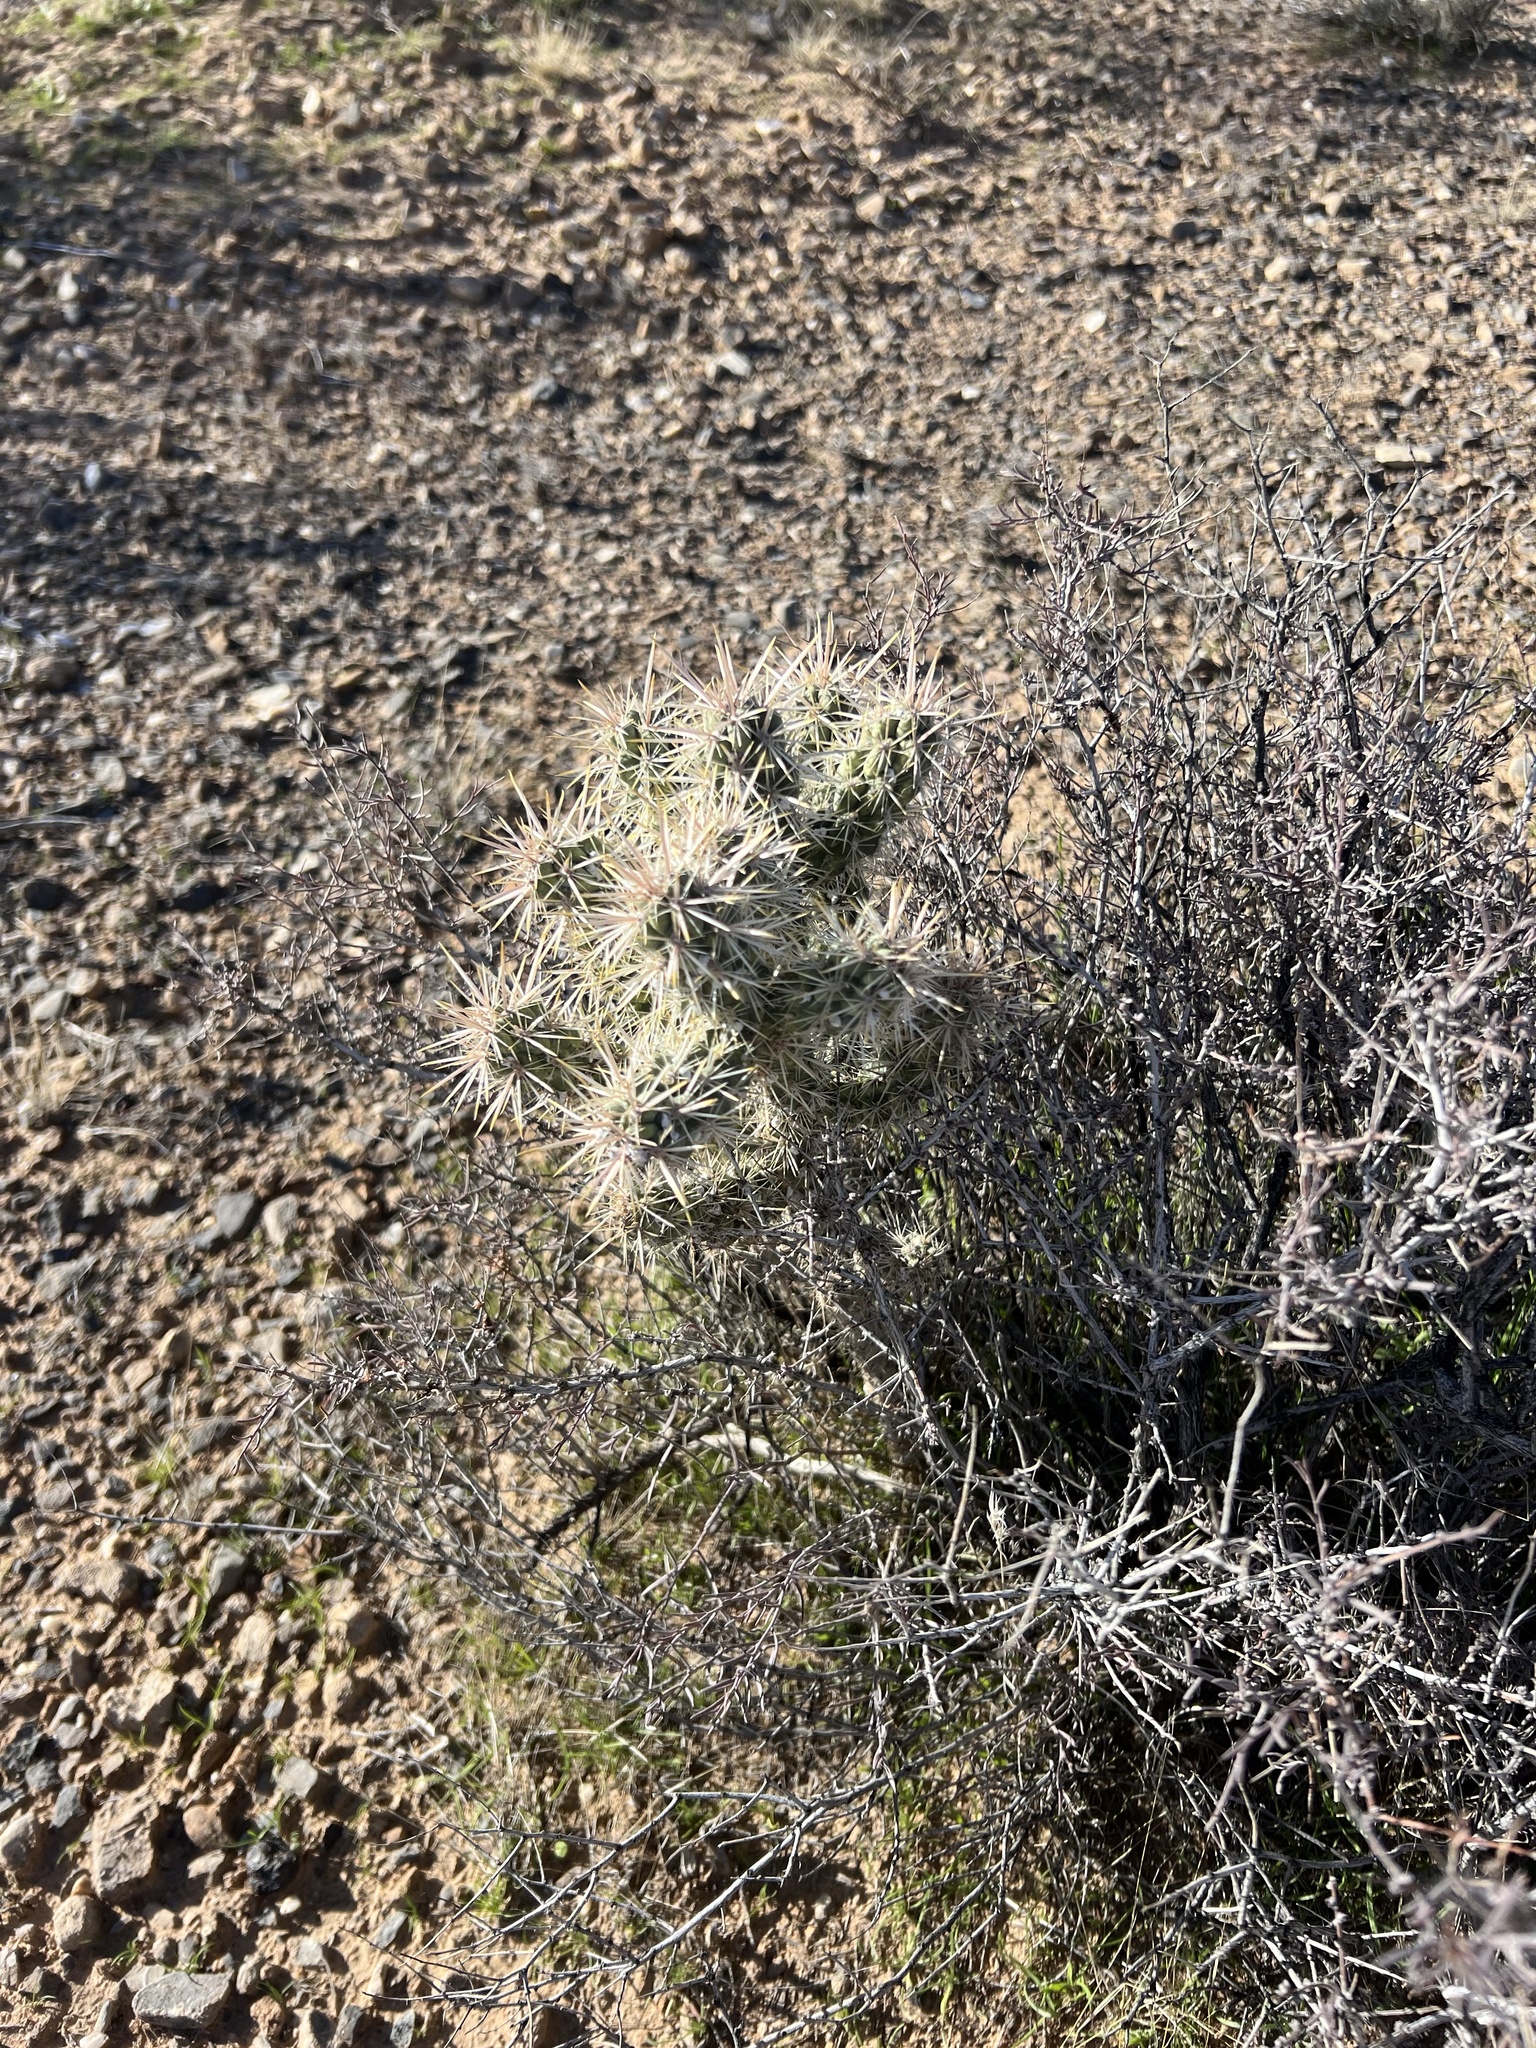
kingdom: Plantae
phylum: Tracheophyta
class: Magnoliopsida
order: Caryophyllales
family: Cactaceae
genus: Cylindropuntia
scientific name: Cylindropuntia echinocarpa
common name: Ground cholla
